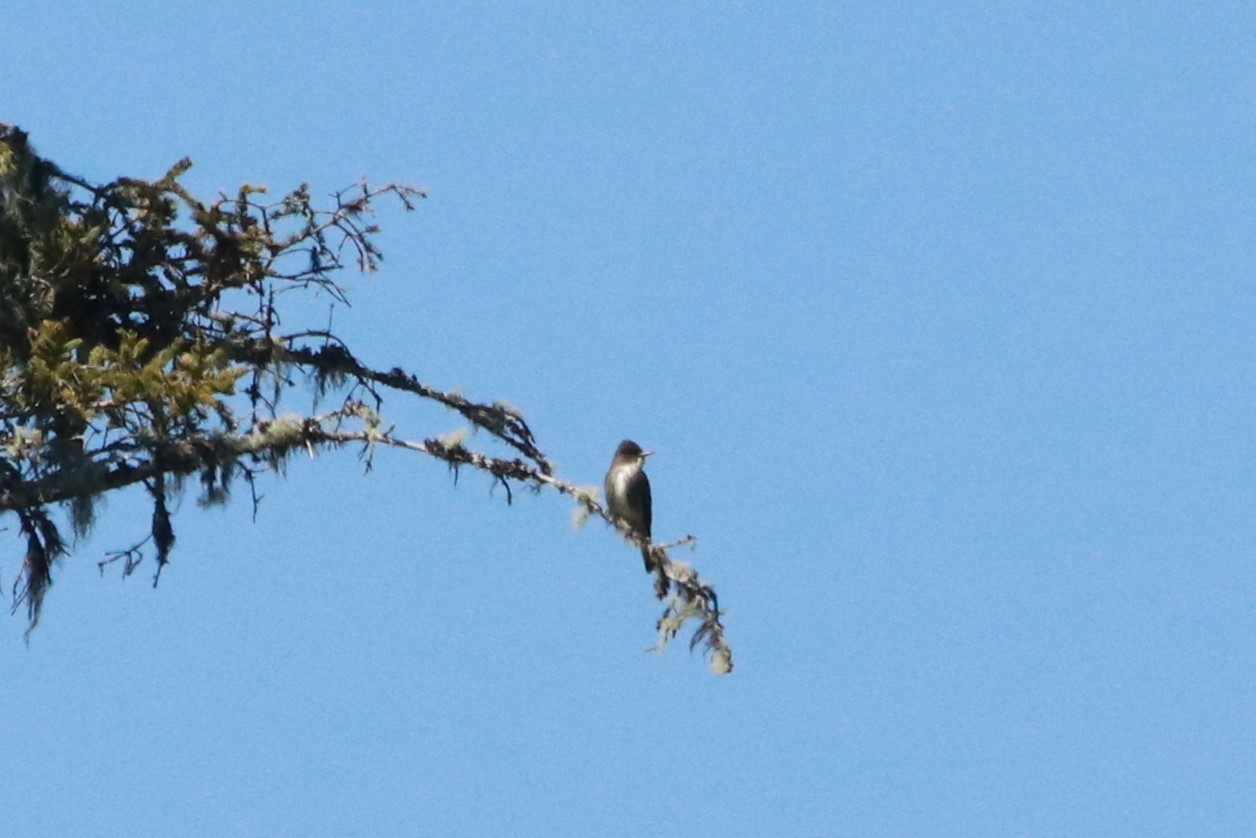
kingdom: Animalia
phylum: Chordata
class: Aves
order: Passeriformes
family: Tyrannidae
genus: Contopus
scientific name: Contopus cooperi
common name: Olive-sided flycatcher
